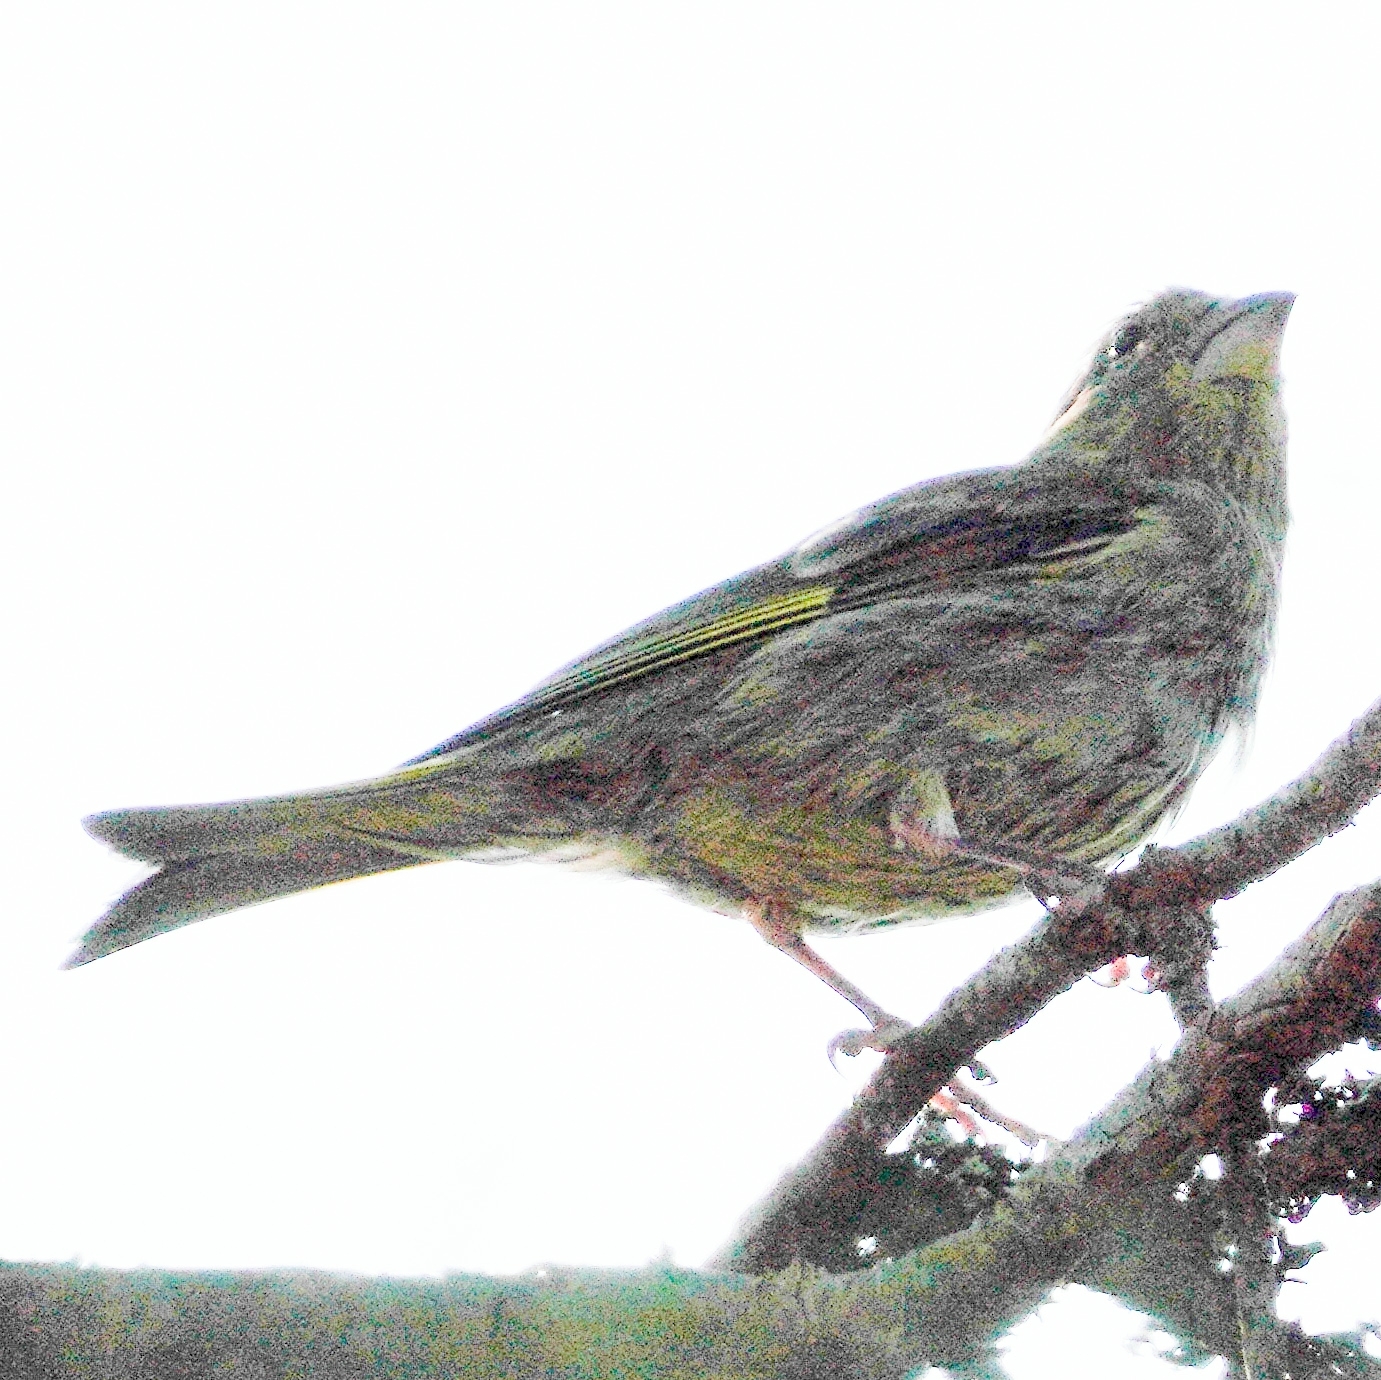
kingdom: Plantae
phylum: Tracheophyta
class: Liliopsida
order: Poales
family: Poaceae
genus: Chloris
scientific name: Chloris chloris
